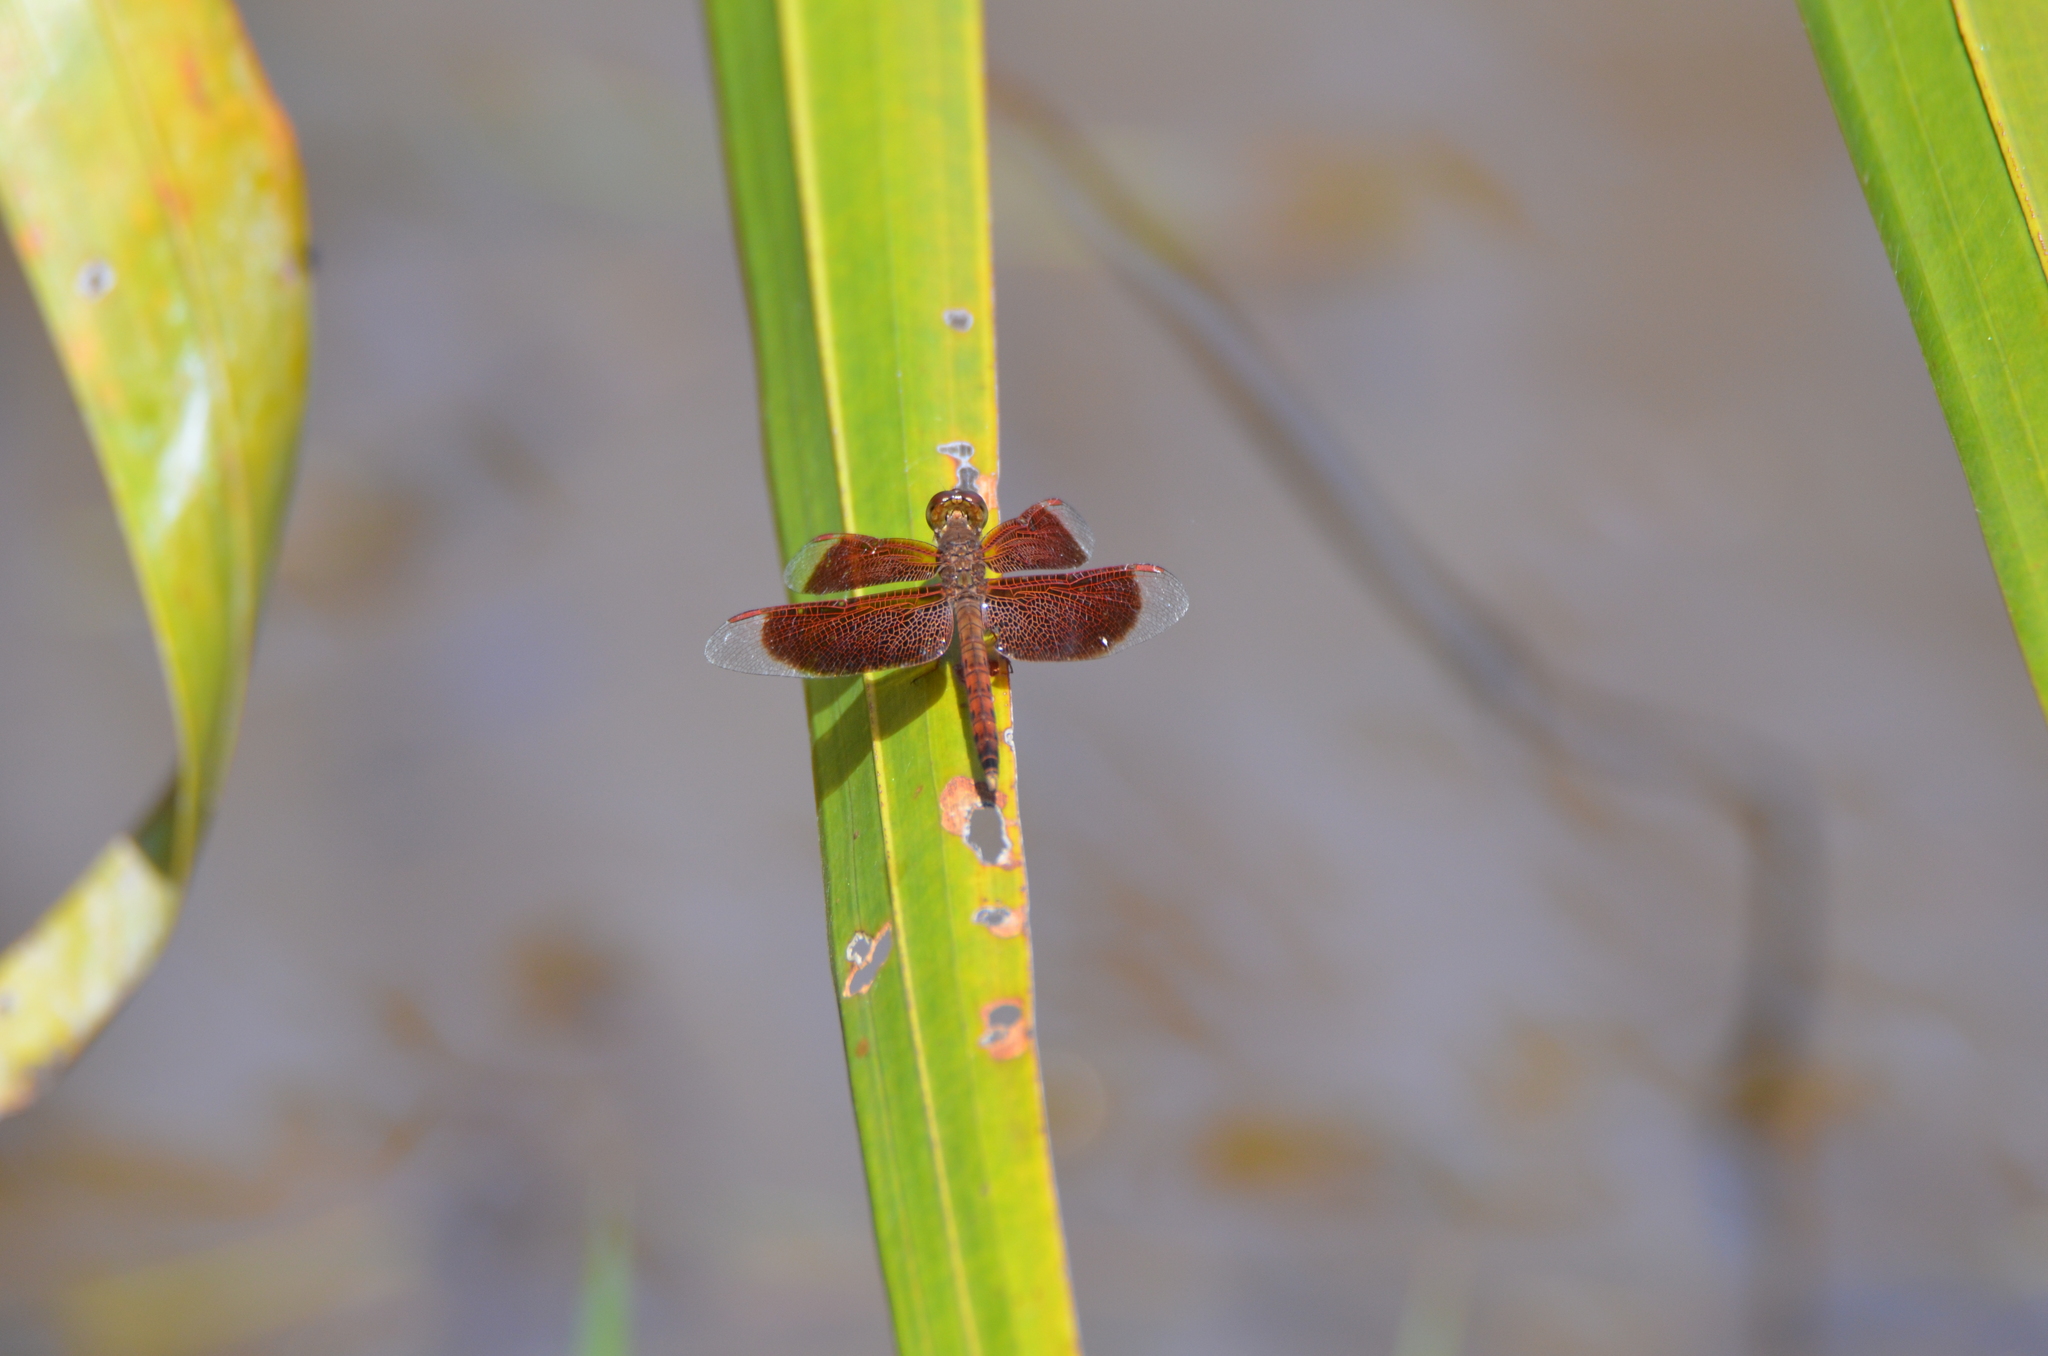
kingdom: Animalia
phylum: Arthropoda
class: Insecta
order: Odonata
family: Libellulidae
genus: Neurothemis
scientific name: Neurothemis fluctuans
